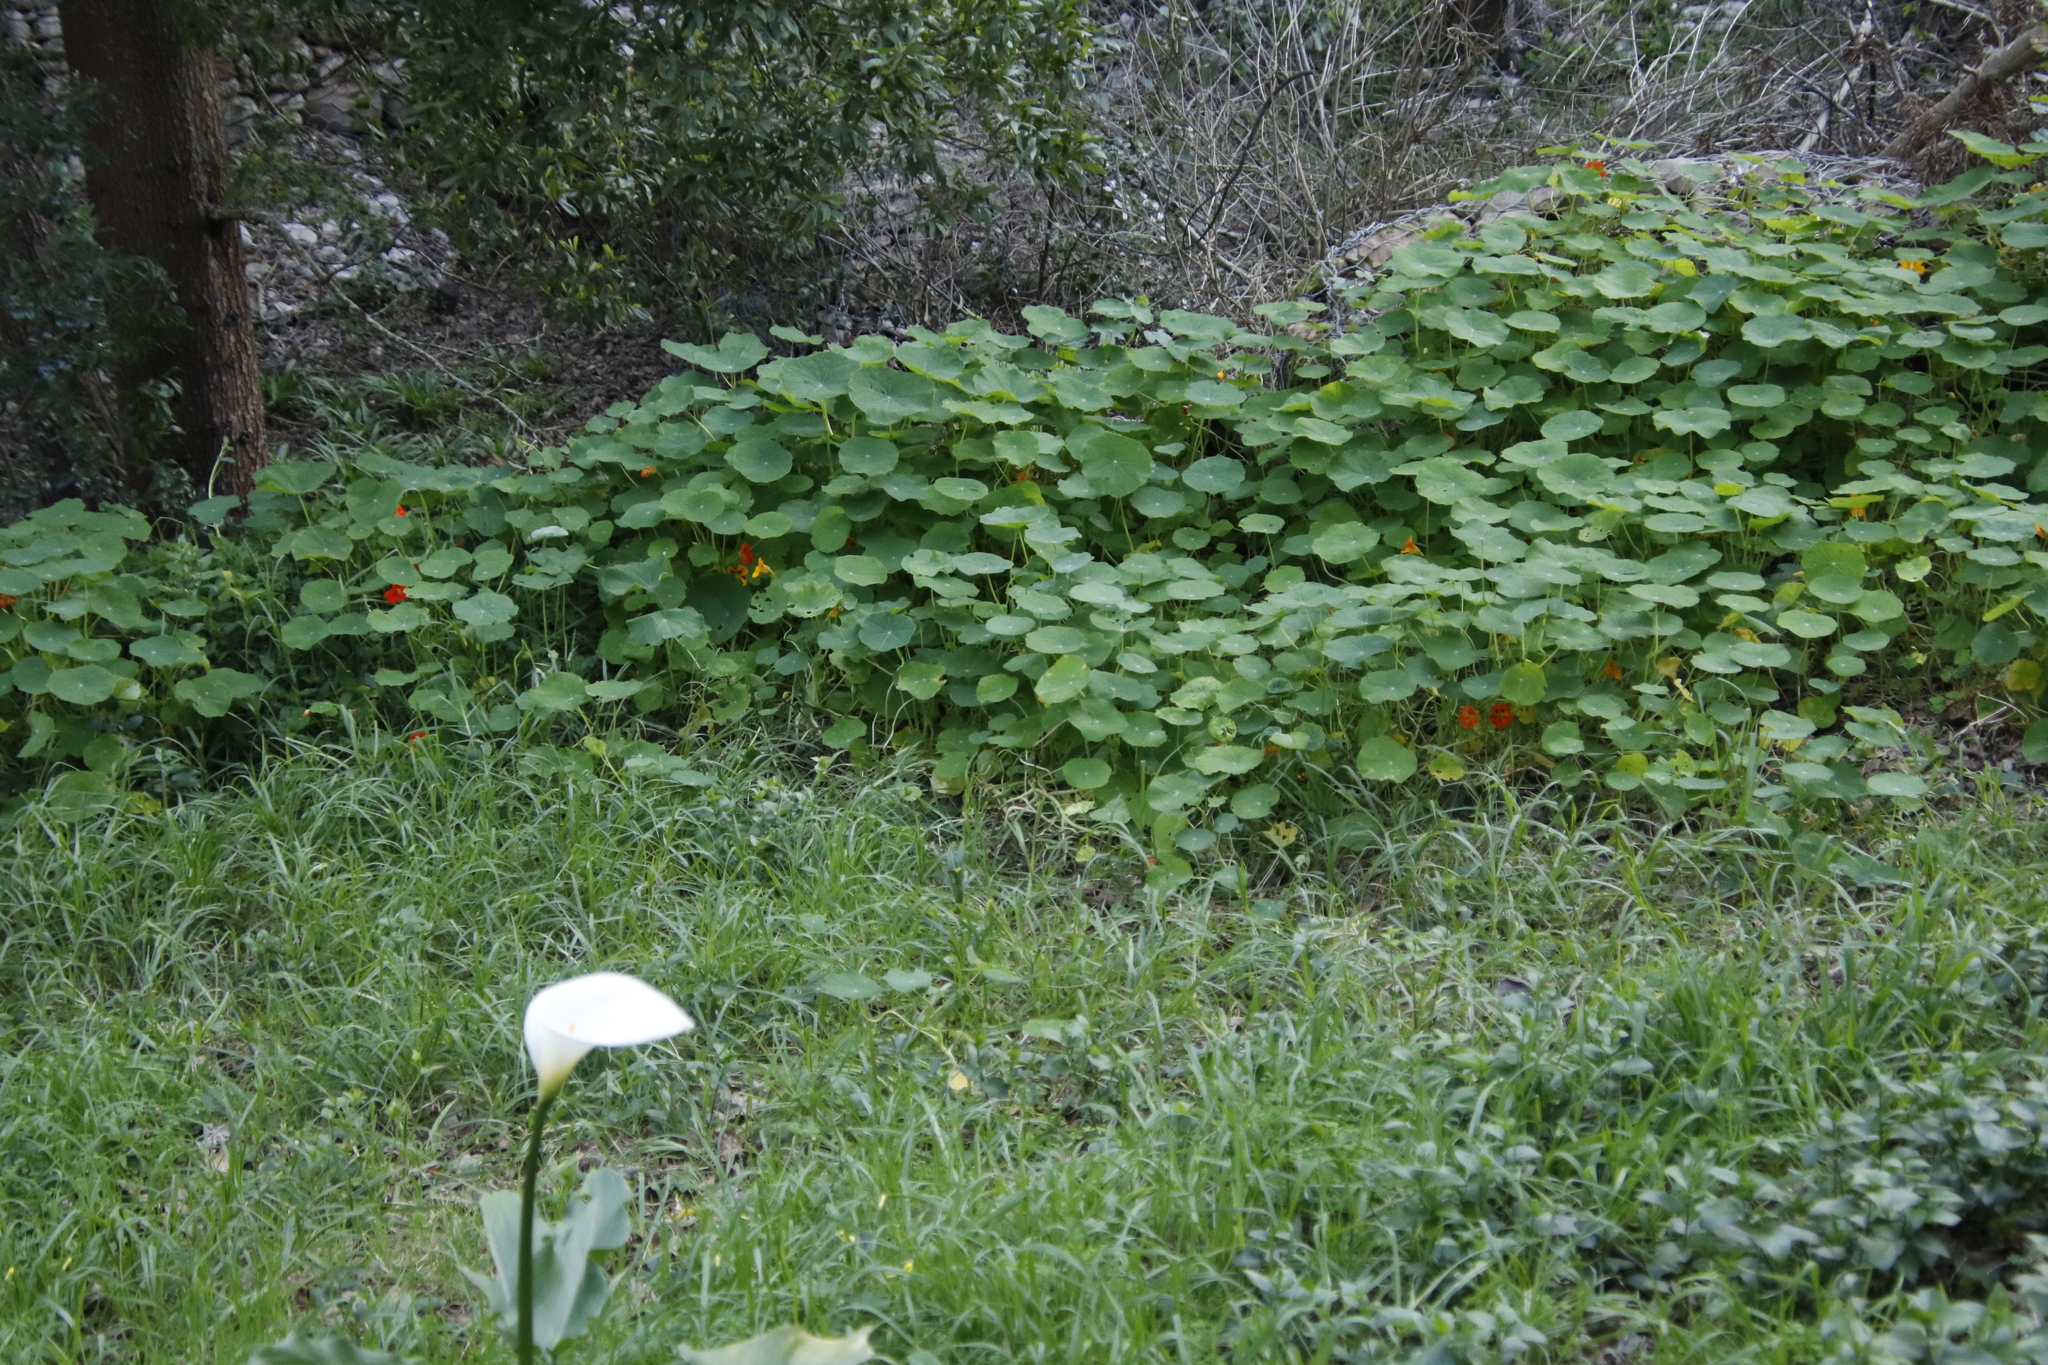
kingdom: Plantae
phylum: Tracheophyta
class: Magnoliopsida
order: Brassicales
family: Tropaeolaceae
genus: Tropaeolum
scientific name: Tropaeolum majus
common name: Nasturtium
